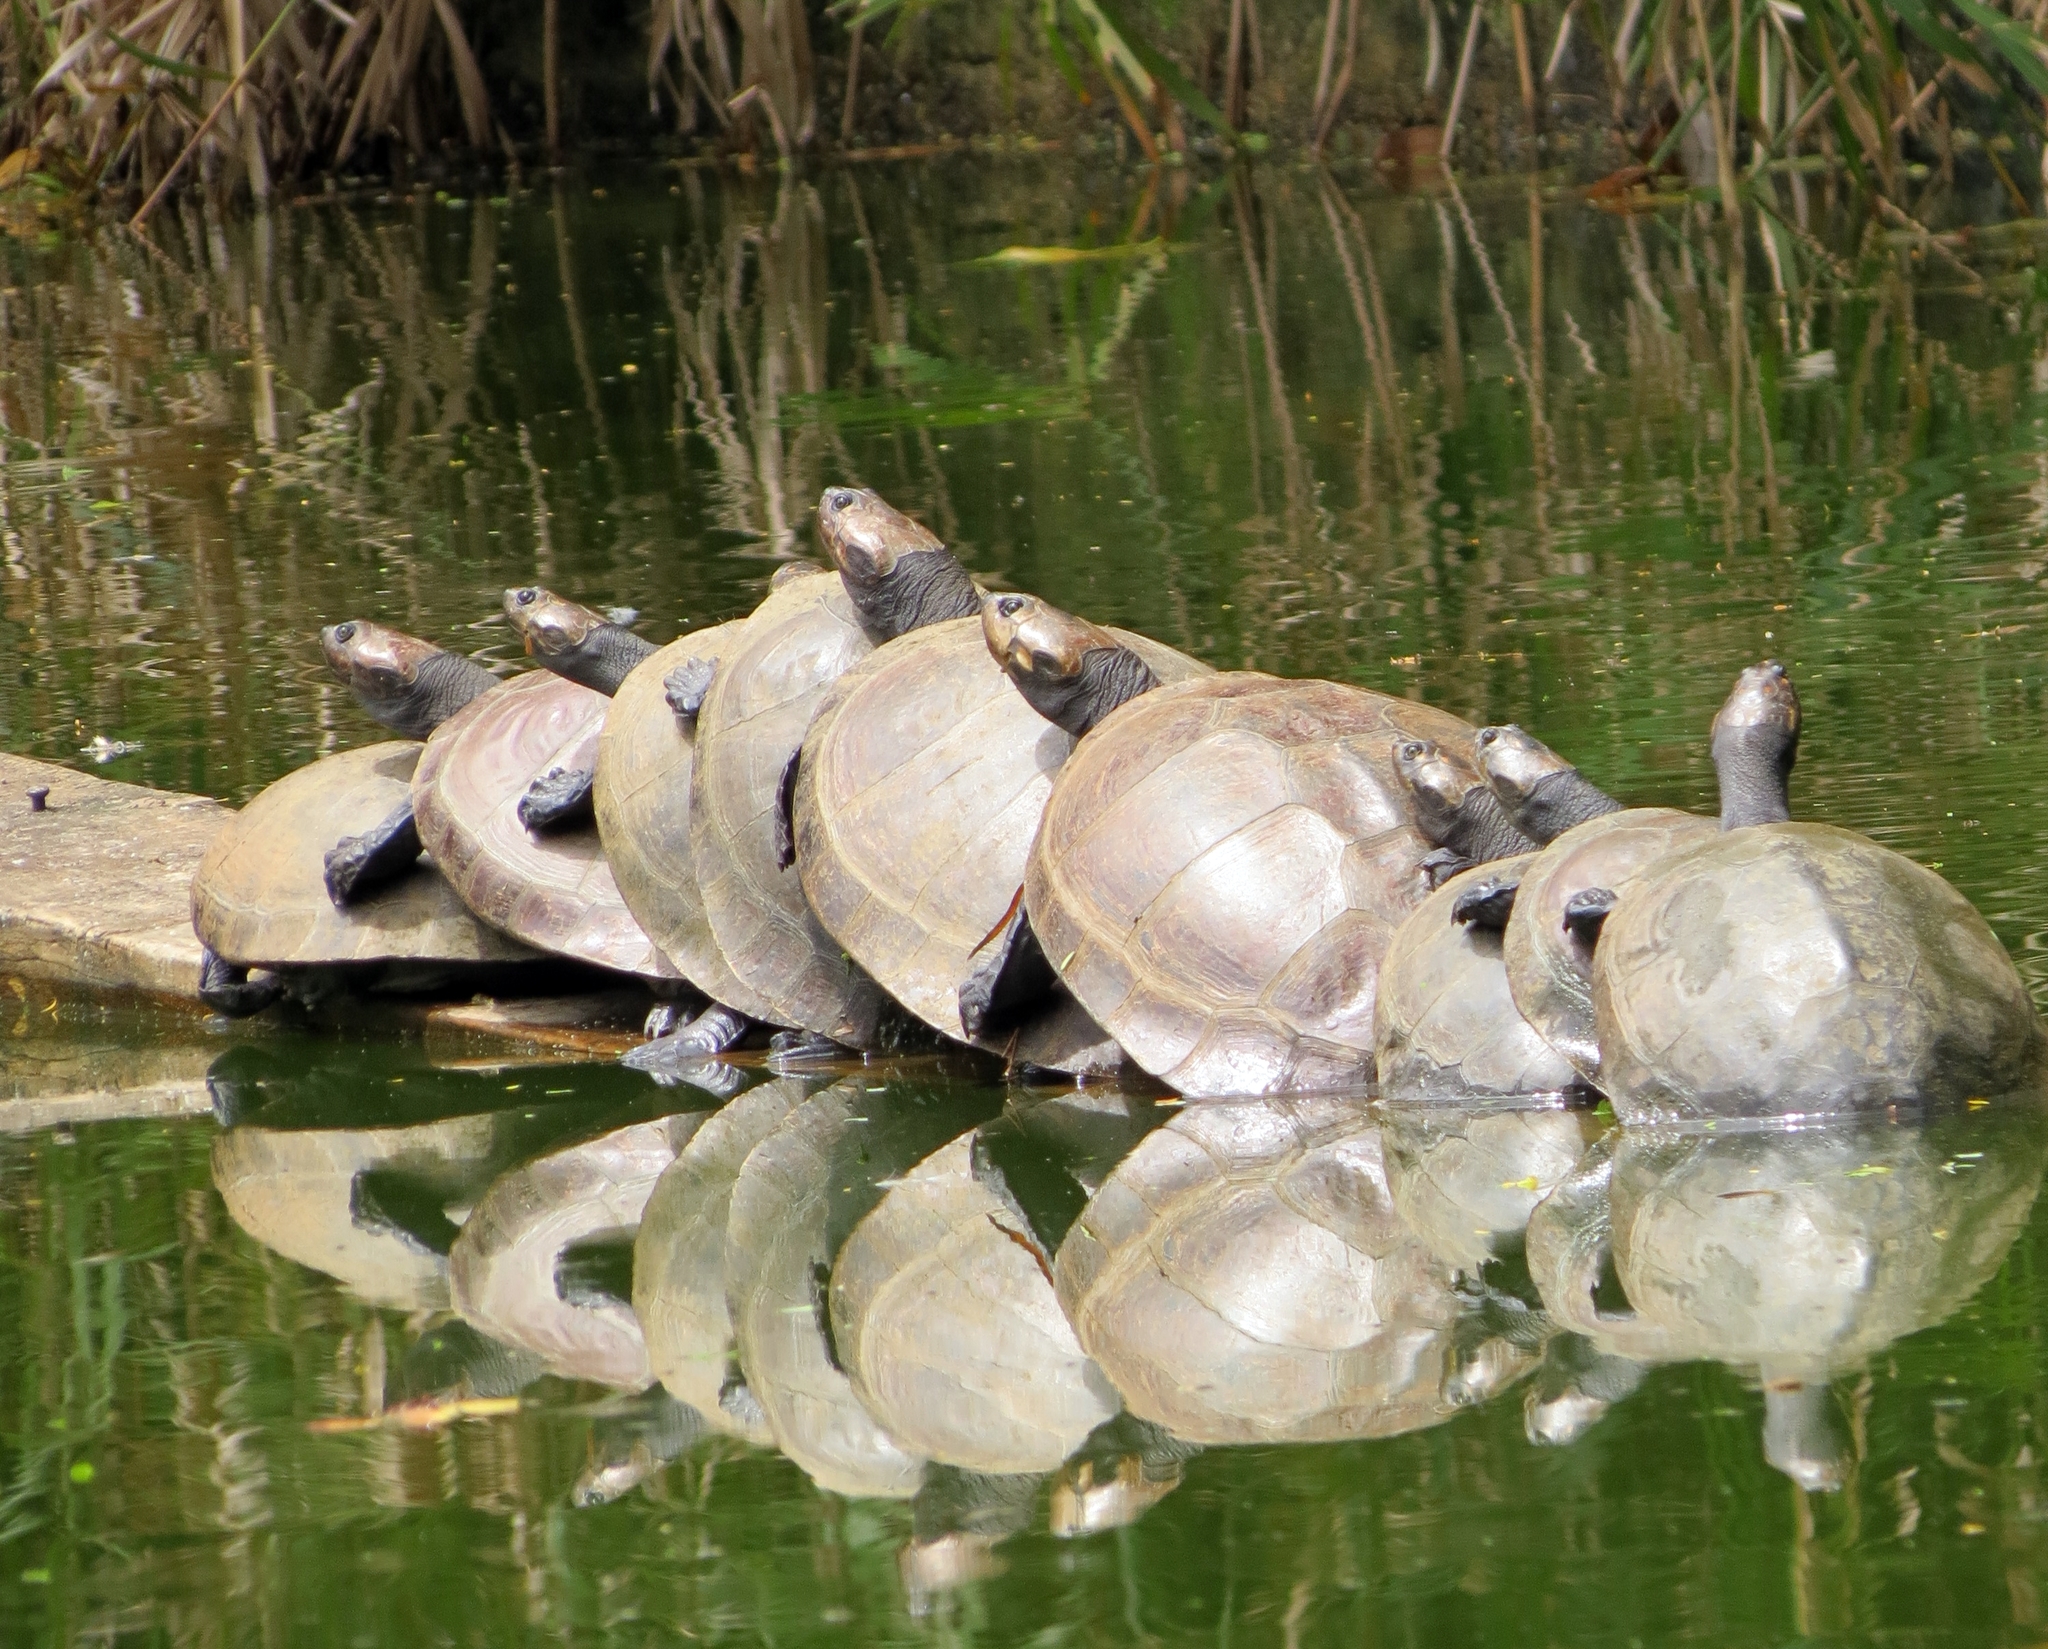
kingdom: Animalia
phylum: Chordata
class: Testudines
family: Podocnemididae
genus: Podocnemis
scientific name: Podocnemis expansa
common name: South american river turtle
